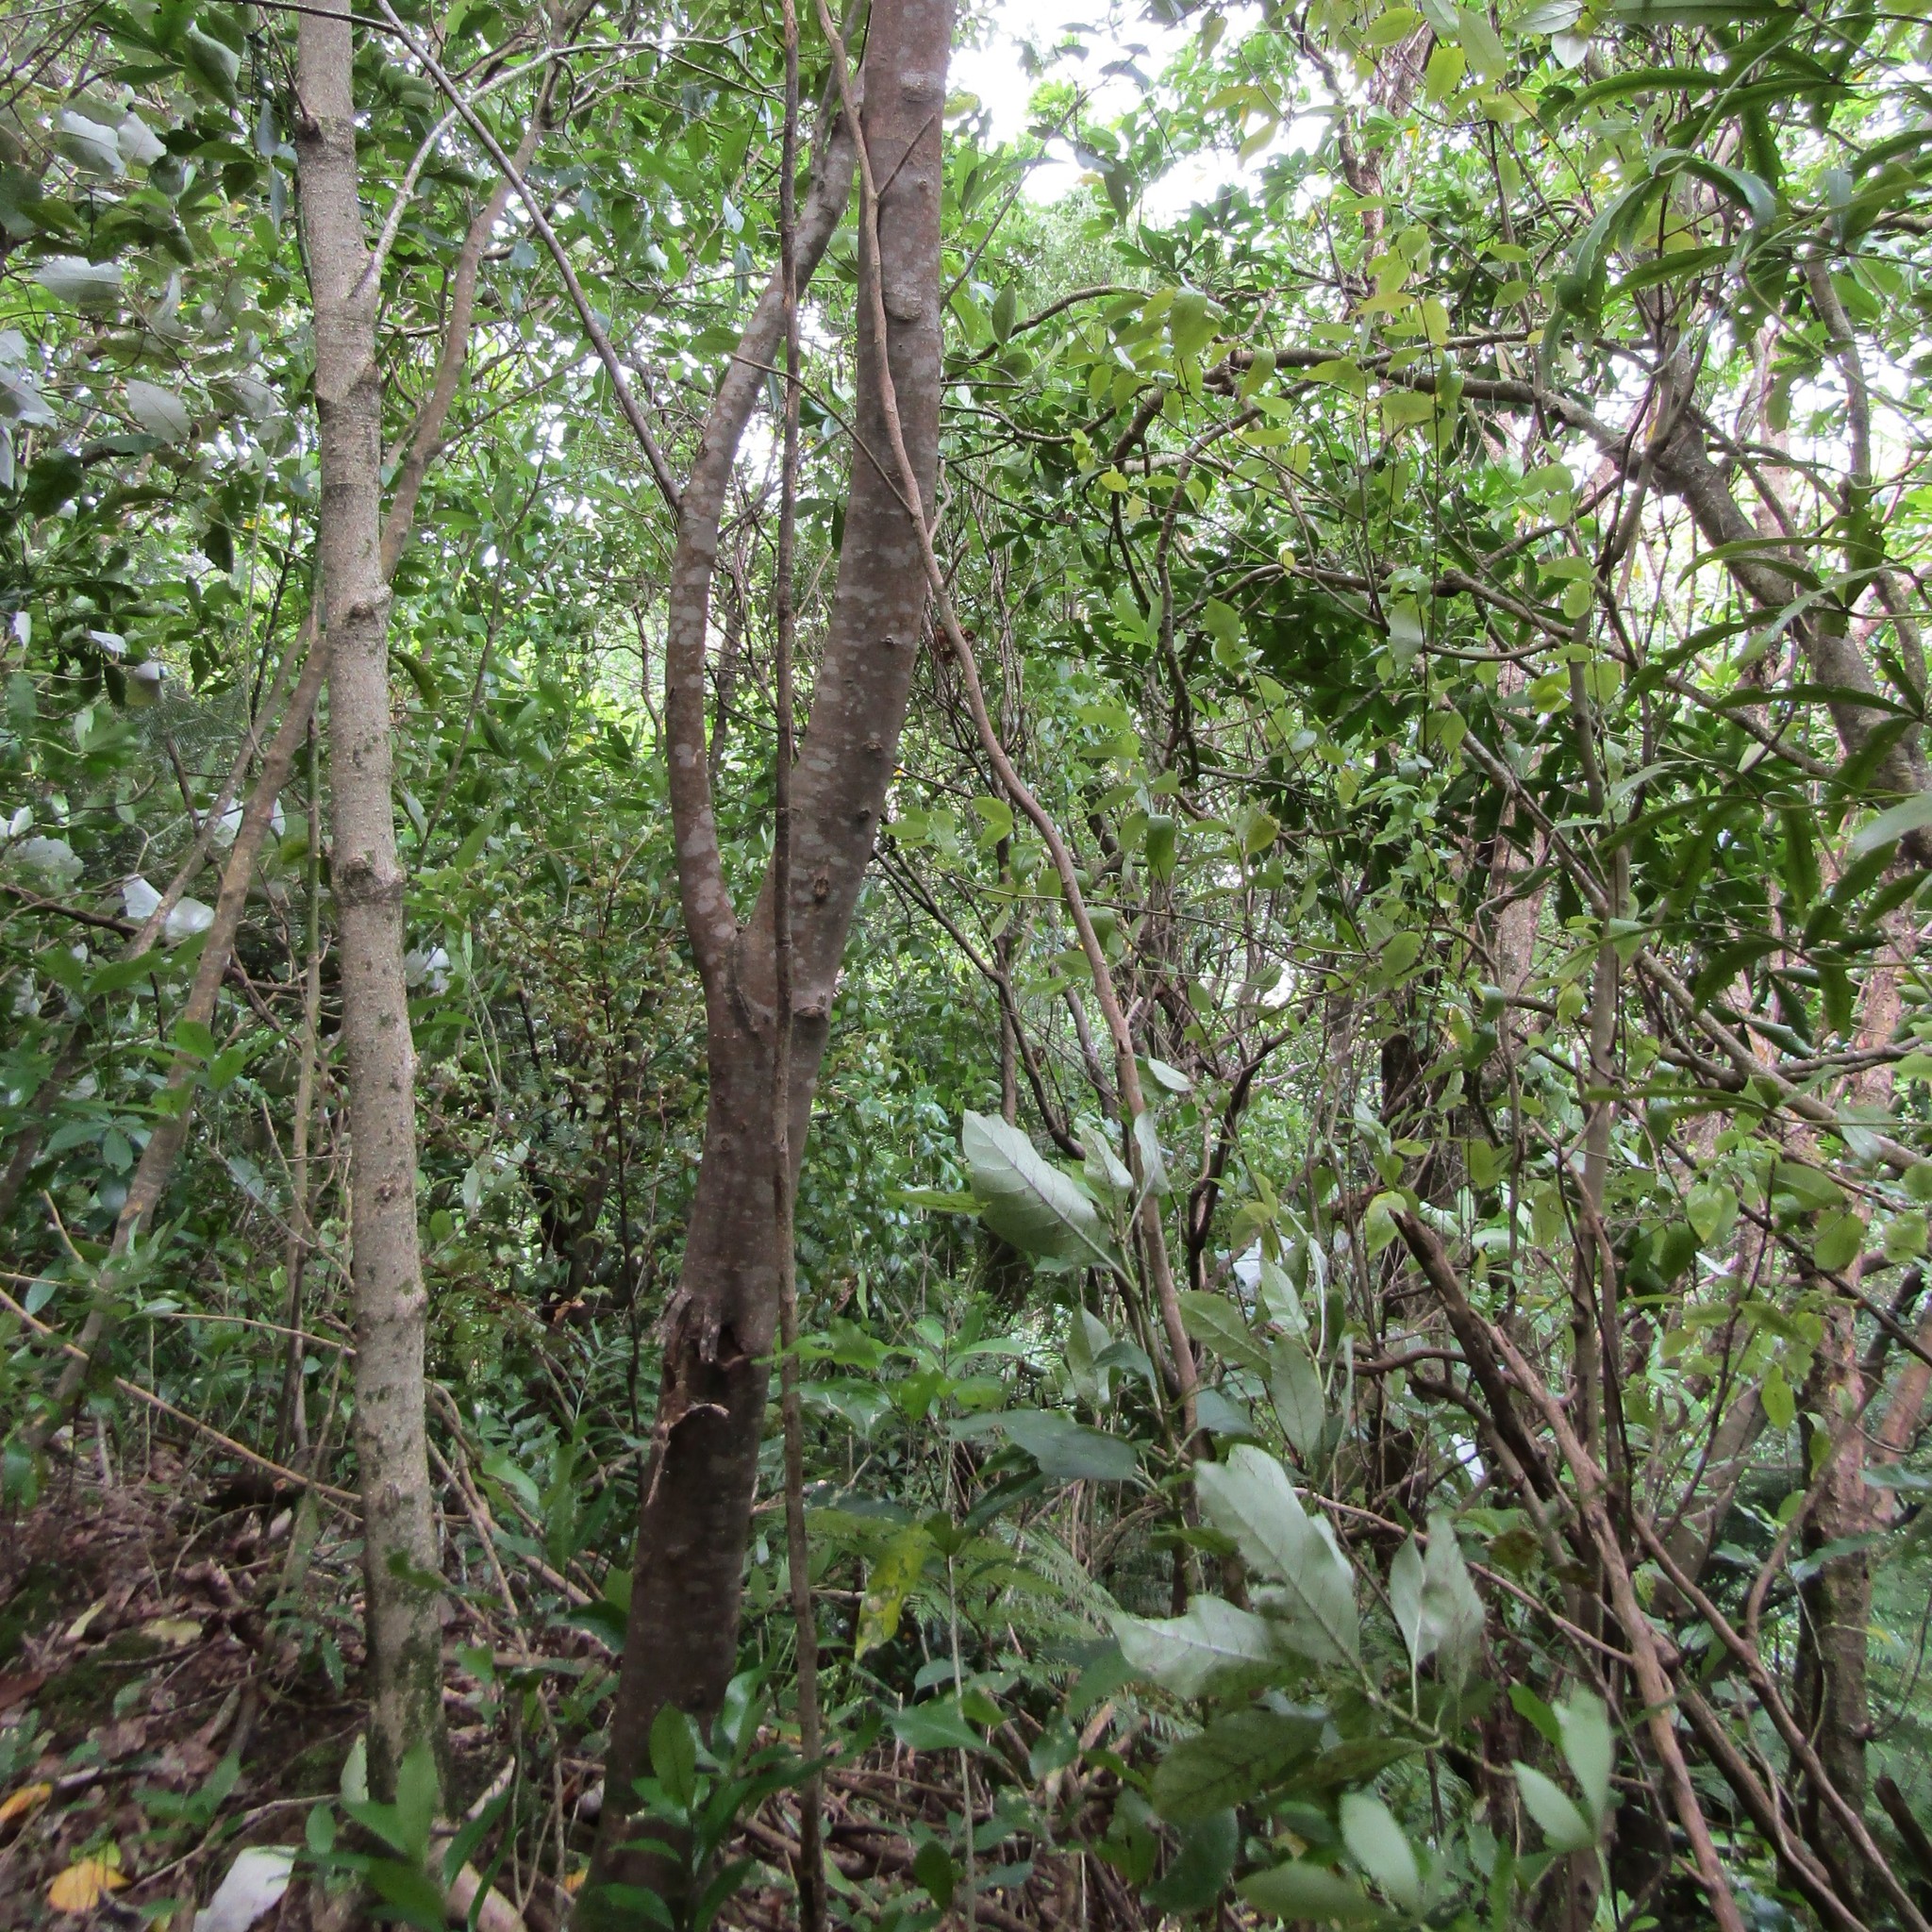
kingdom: Animalia
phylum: Arthropoda
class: Insecta
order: Lepidoptera
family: Hepialidae
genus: Aenetus
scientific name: Aenetus virescens
